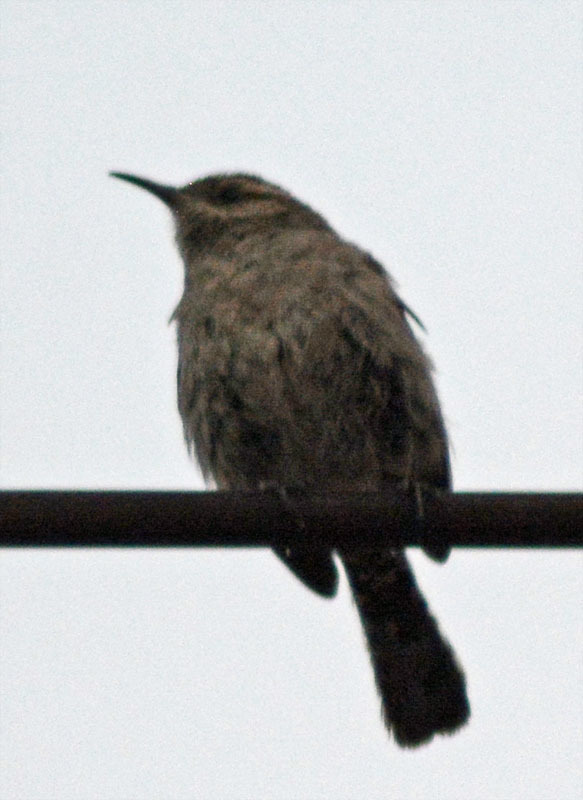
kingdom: Animalia
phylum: Chordata
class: Aves
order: Passeriformes
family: Troglodytidae
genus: Thryomanes
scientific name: Thryomanes bewickii
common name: Bewick's wren
